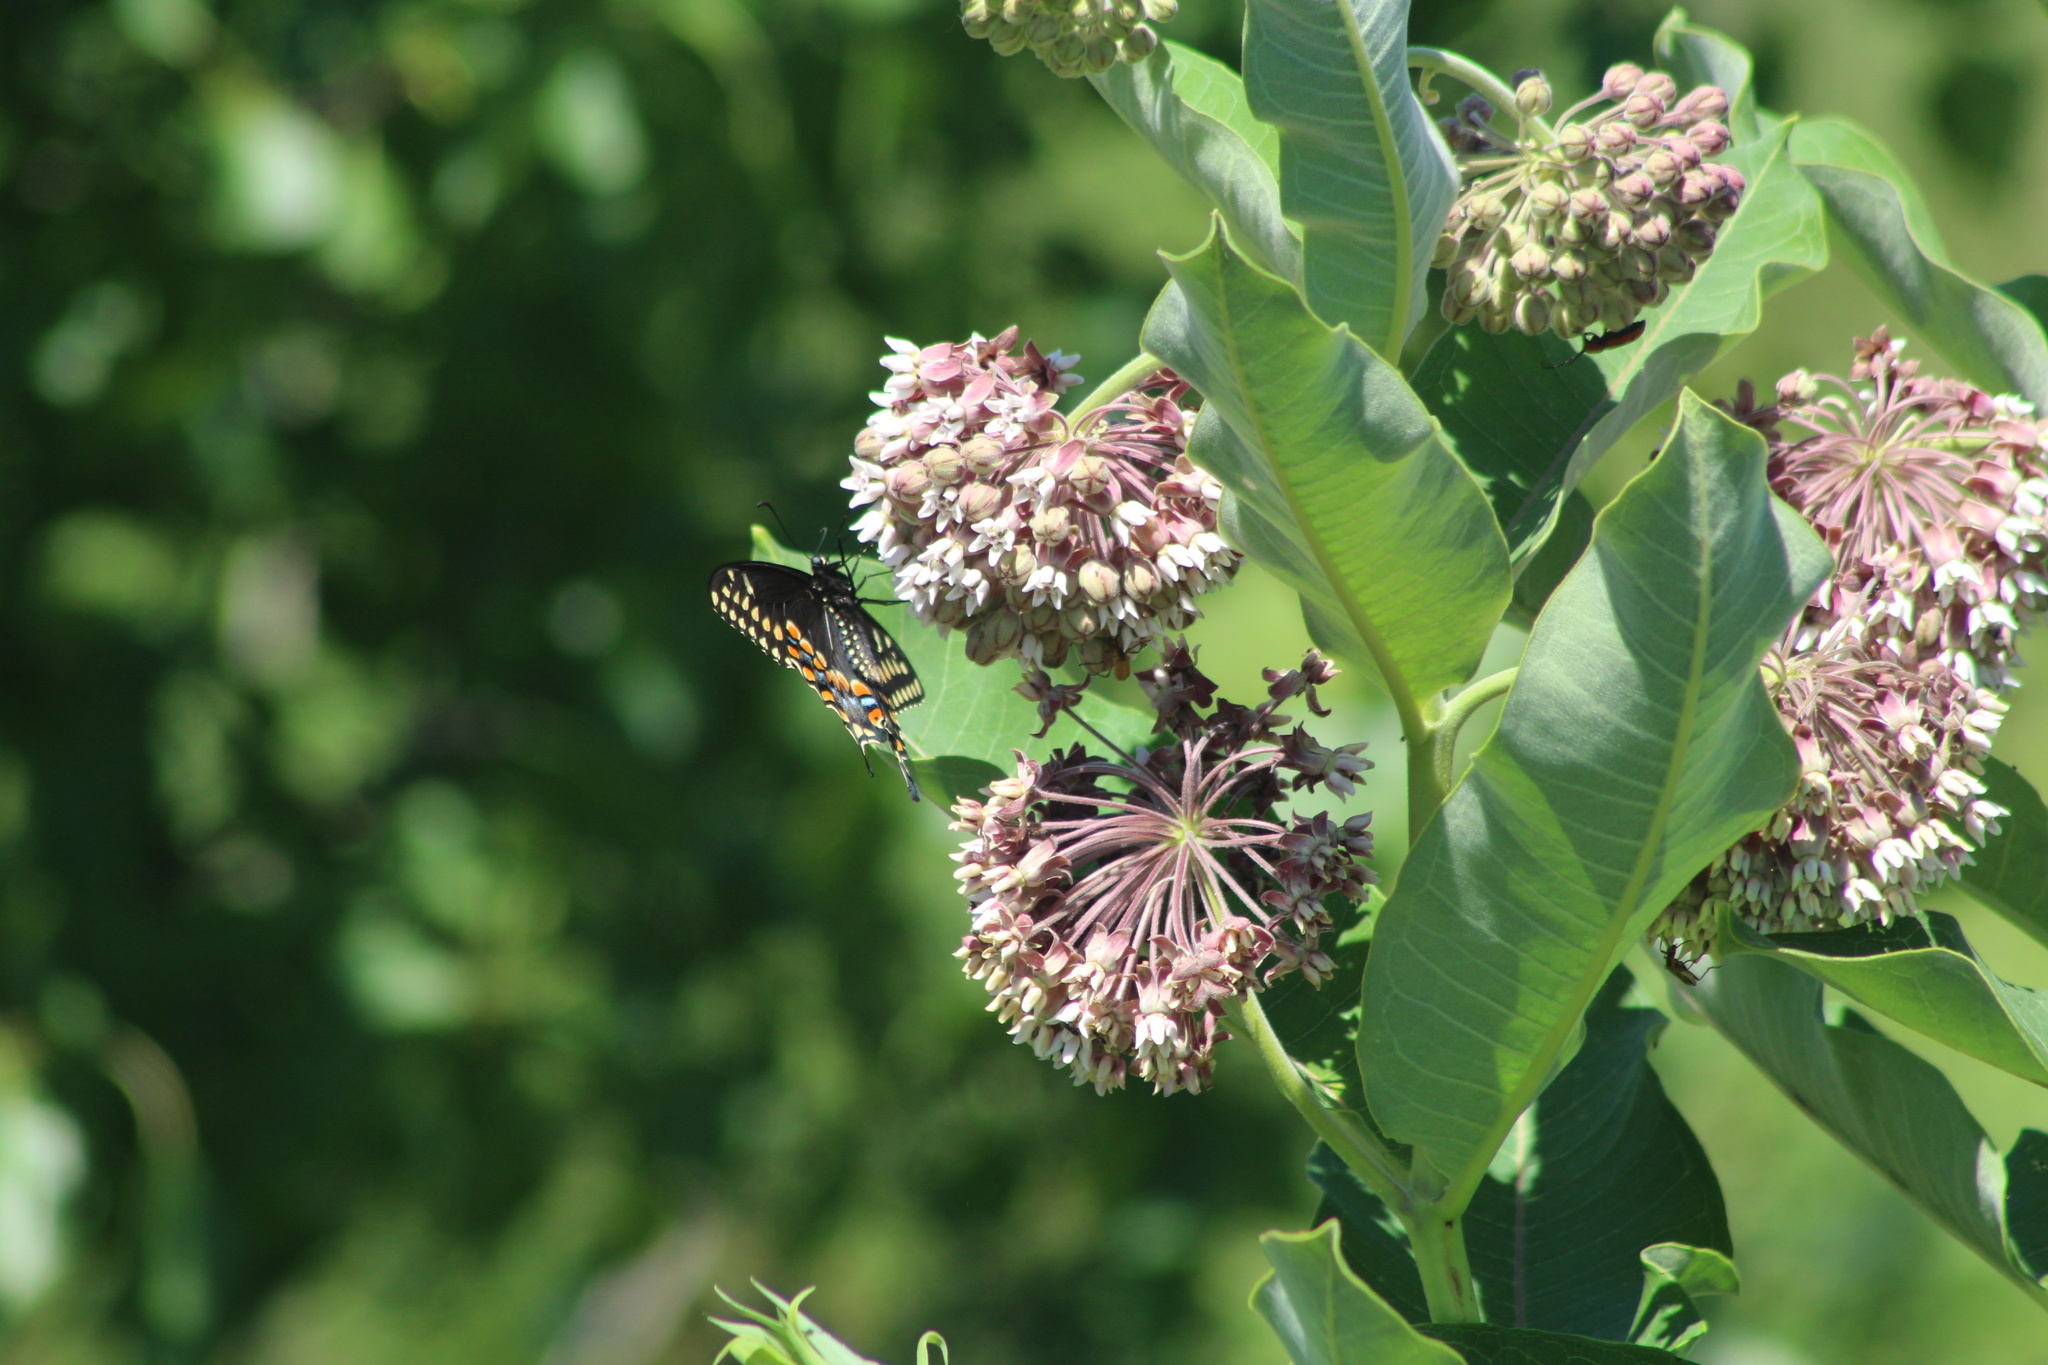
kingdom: Animalia
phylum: Arthropoda
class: Insecta
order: Lepidoptera
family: Papilionidae
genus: Papilio
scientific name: Papilio polyxenes
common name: Black swallowtail
